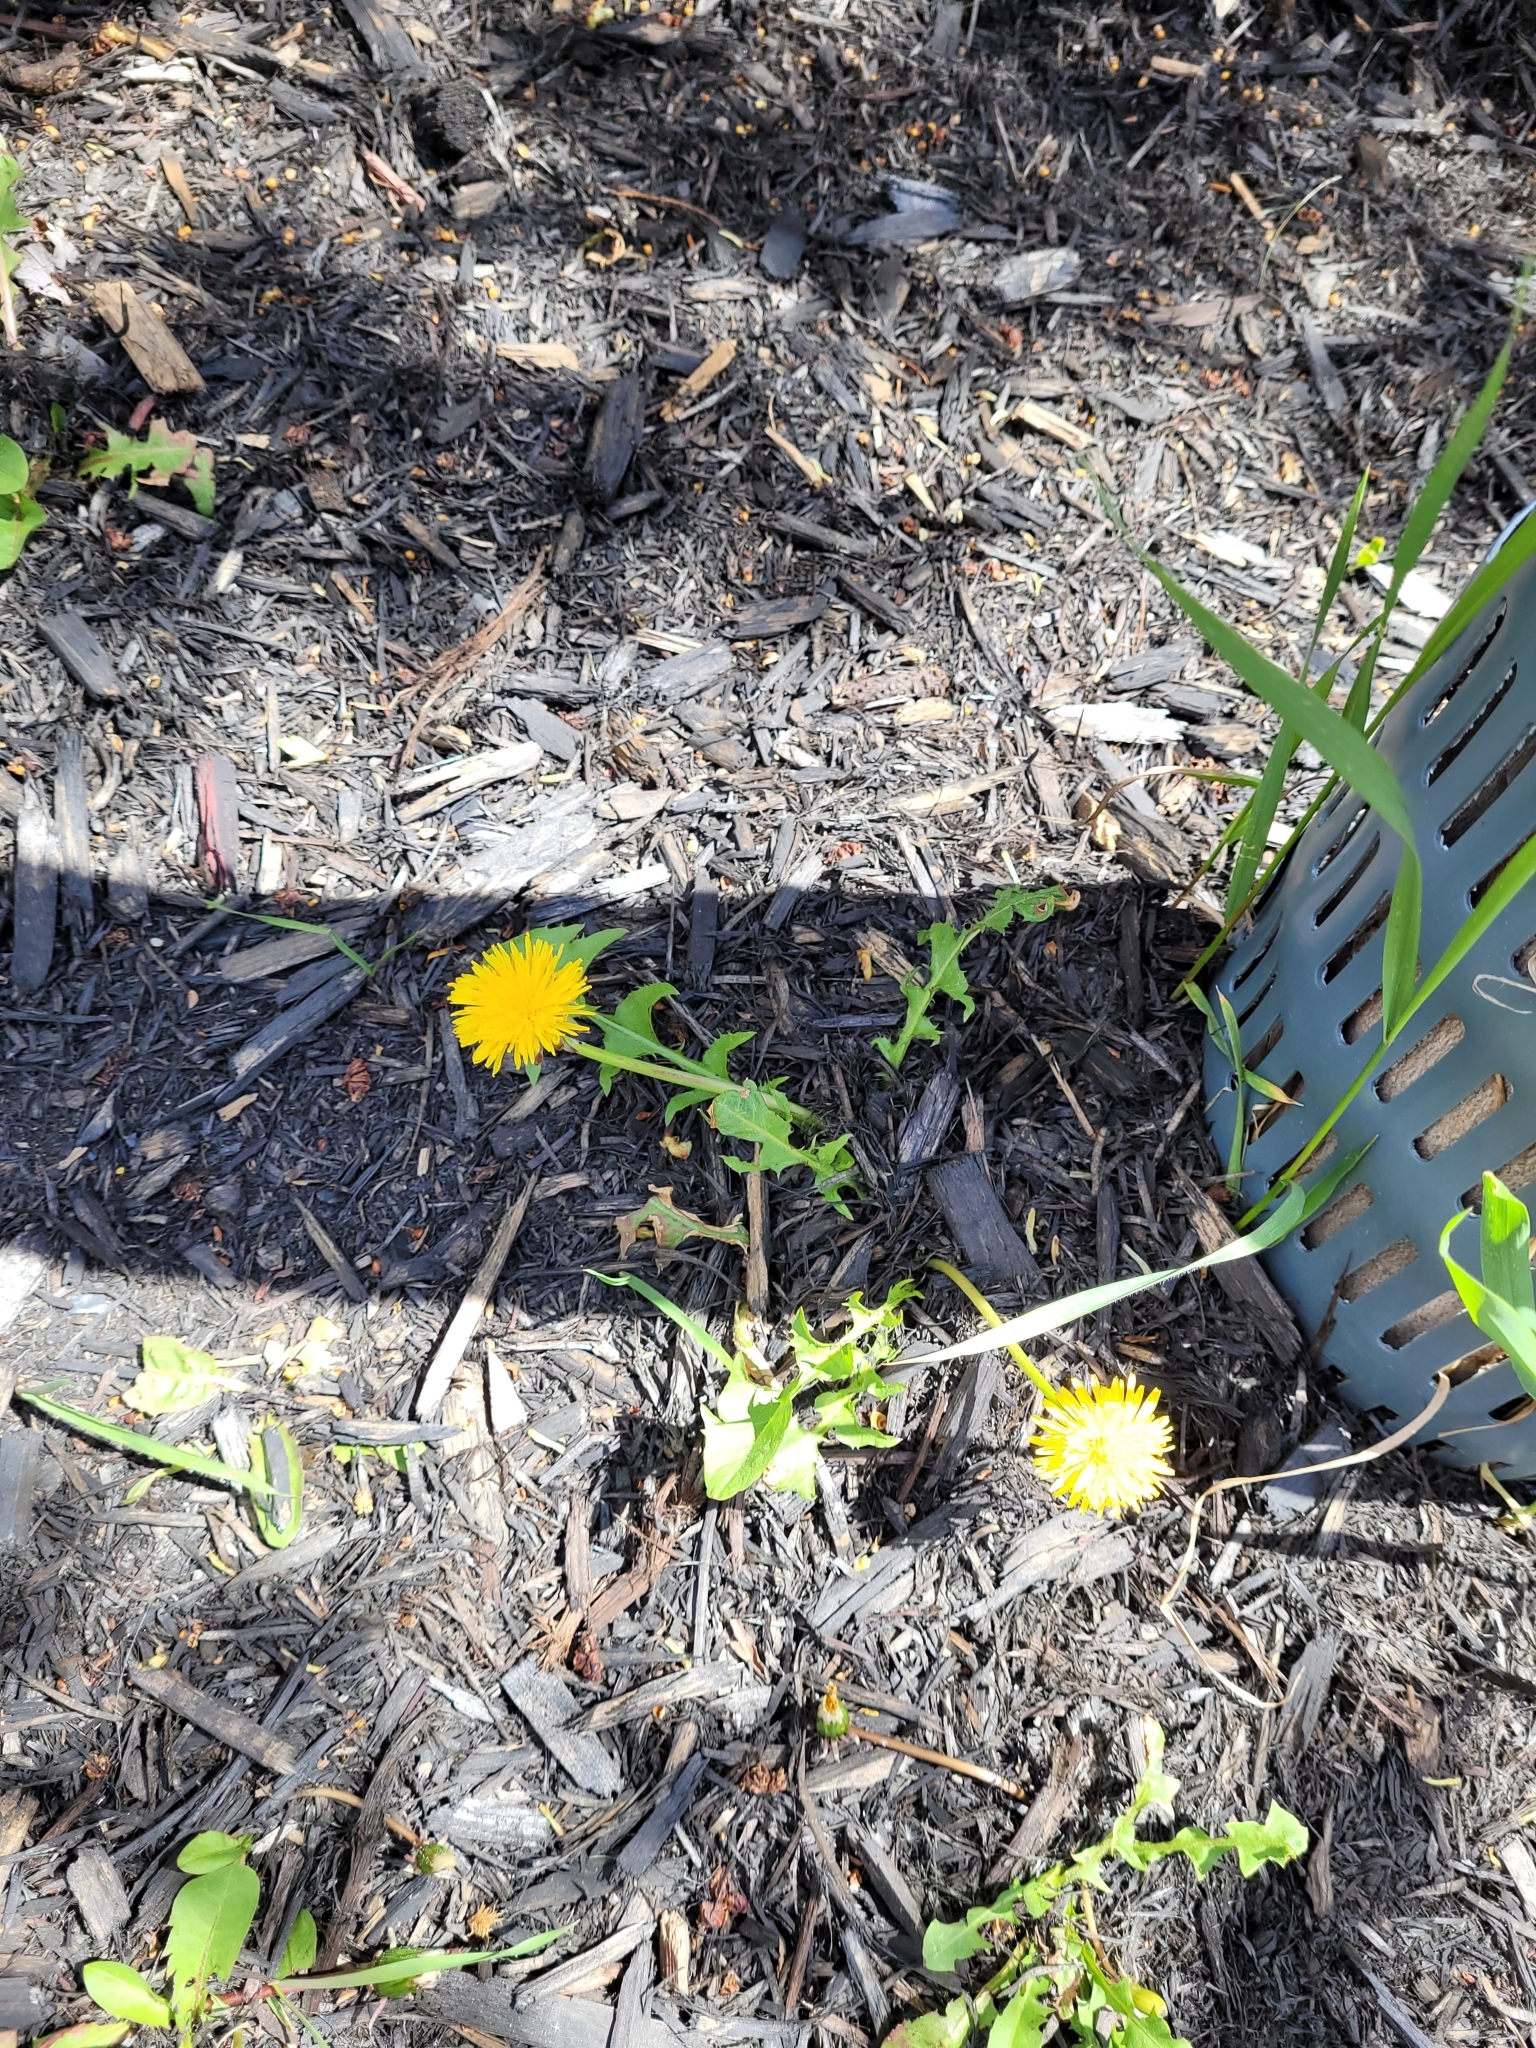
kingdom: Plantae
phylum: Tracheophyta
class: Magnoliopsida
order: Asterales
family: Asteraceae
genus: Taraxacum
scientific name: Taraxacum officinale
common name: Common dandelion
